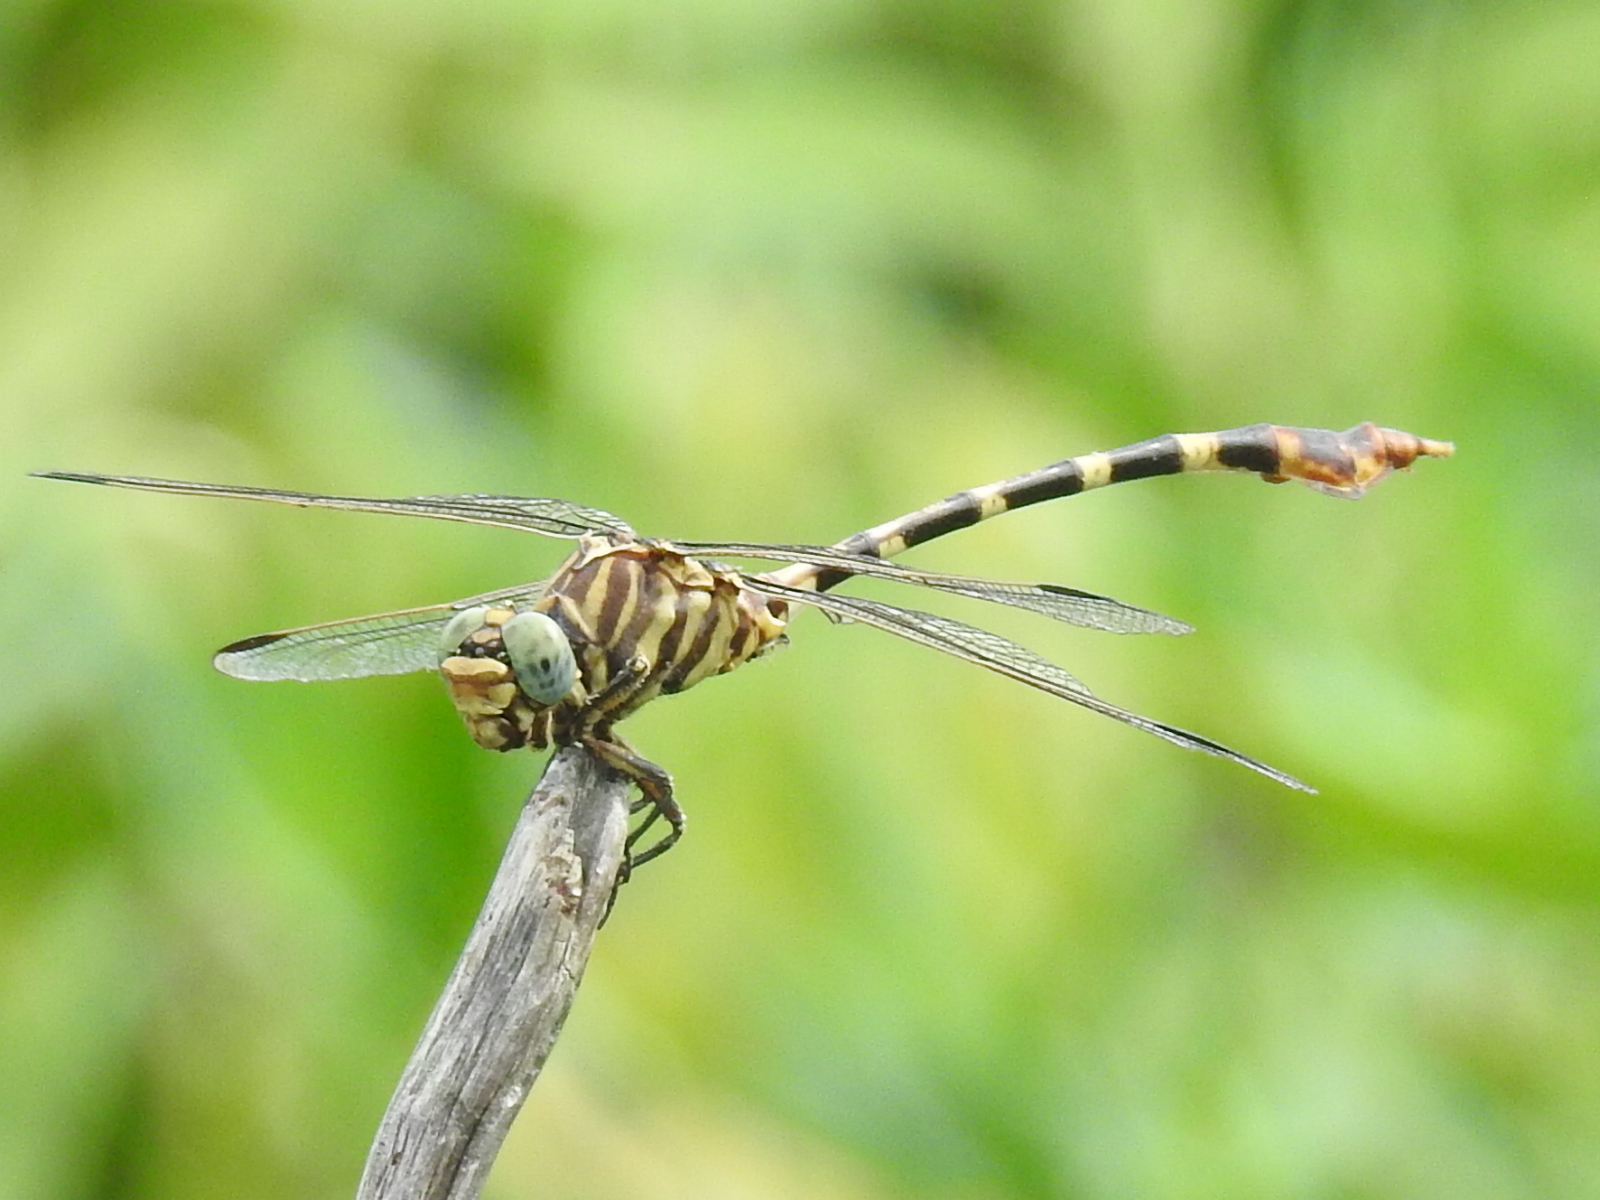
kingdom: Animalia
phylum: Arthropoda
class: Insecta
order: Odonata
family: Gomphidae
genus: Phyllogomphoides
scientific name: Phyllogomphoides stigmatus
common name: Four-striped leaftail
